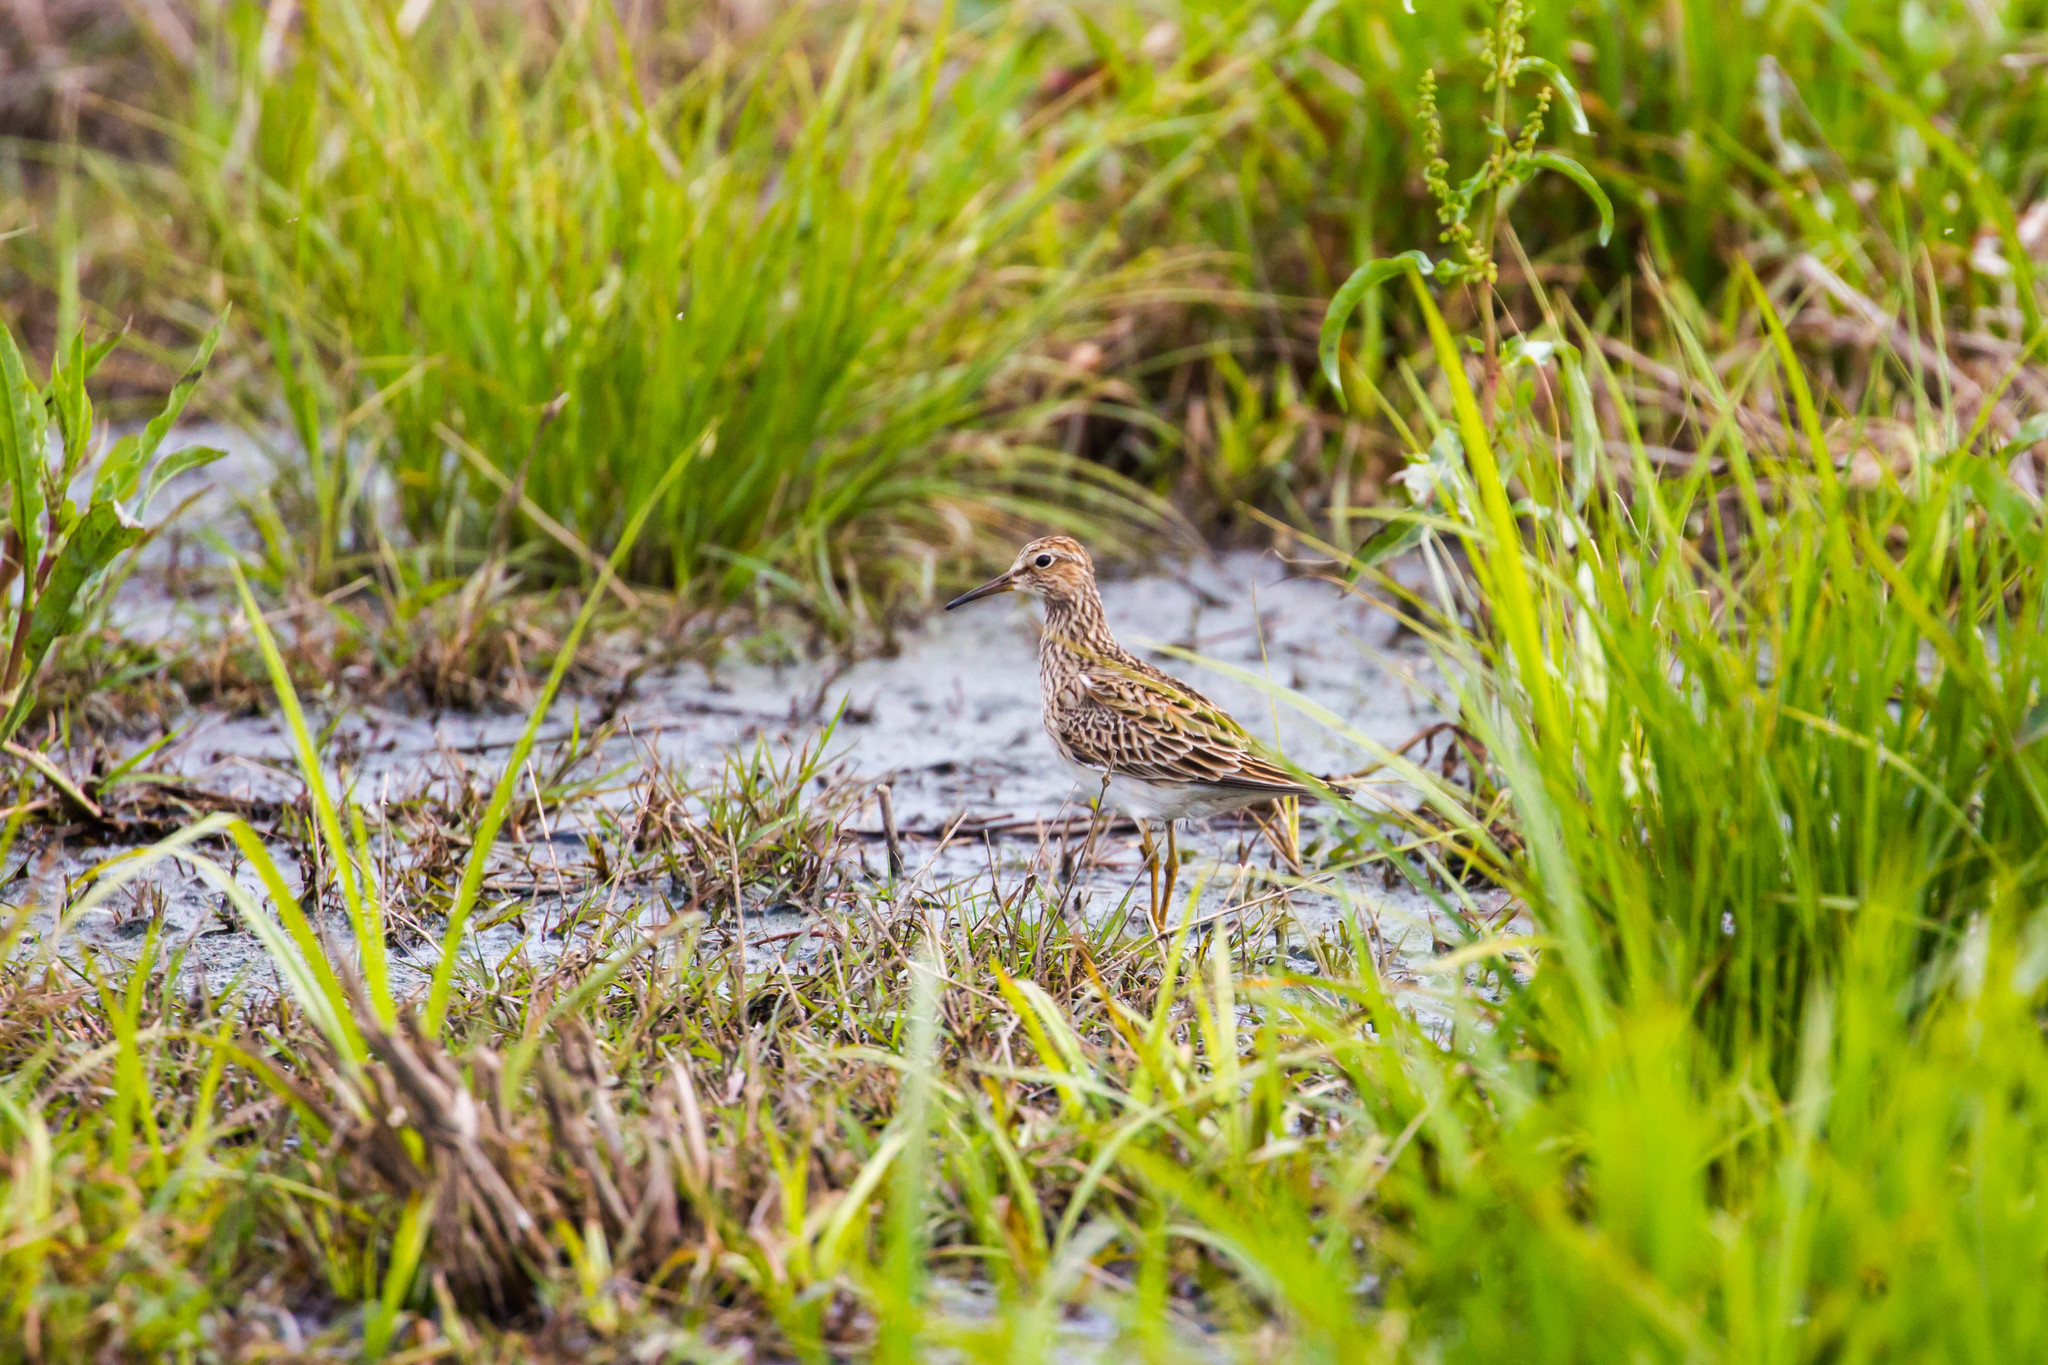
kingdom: Animalia
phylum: Chordata
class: Aves
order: Charadriiformes
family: Scolopacidae
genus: Calidris
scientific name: Calidris melanotos
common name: Pectoral sandpiper
